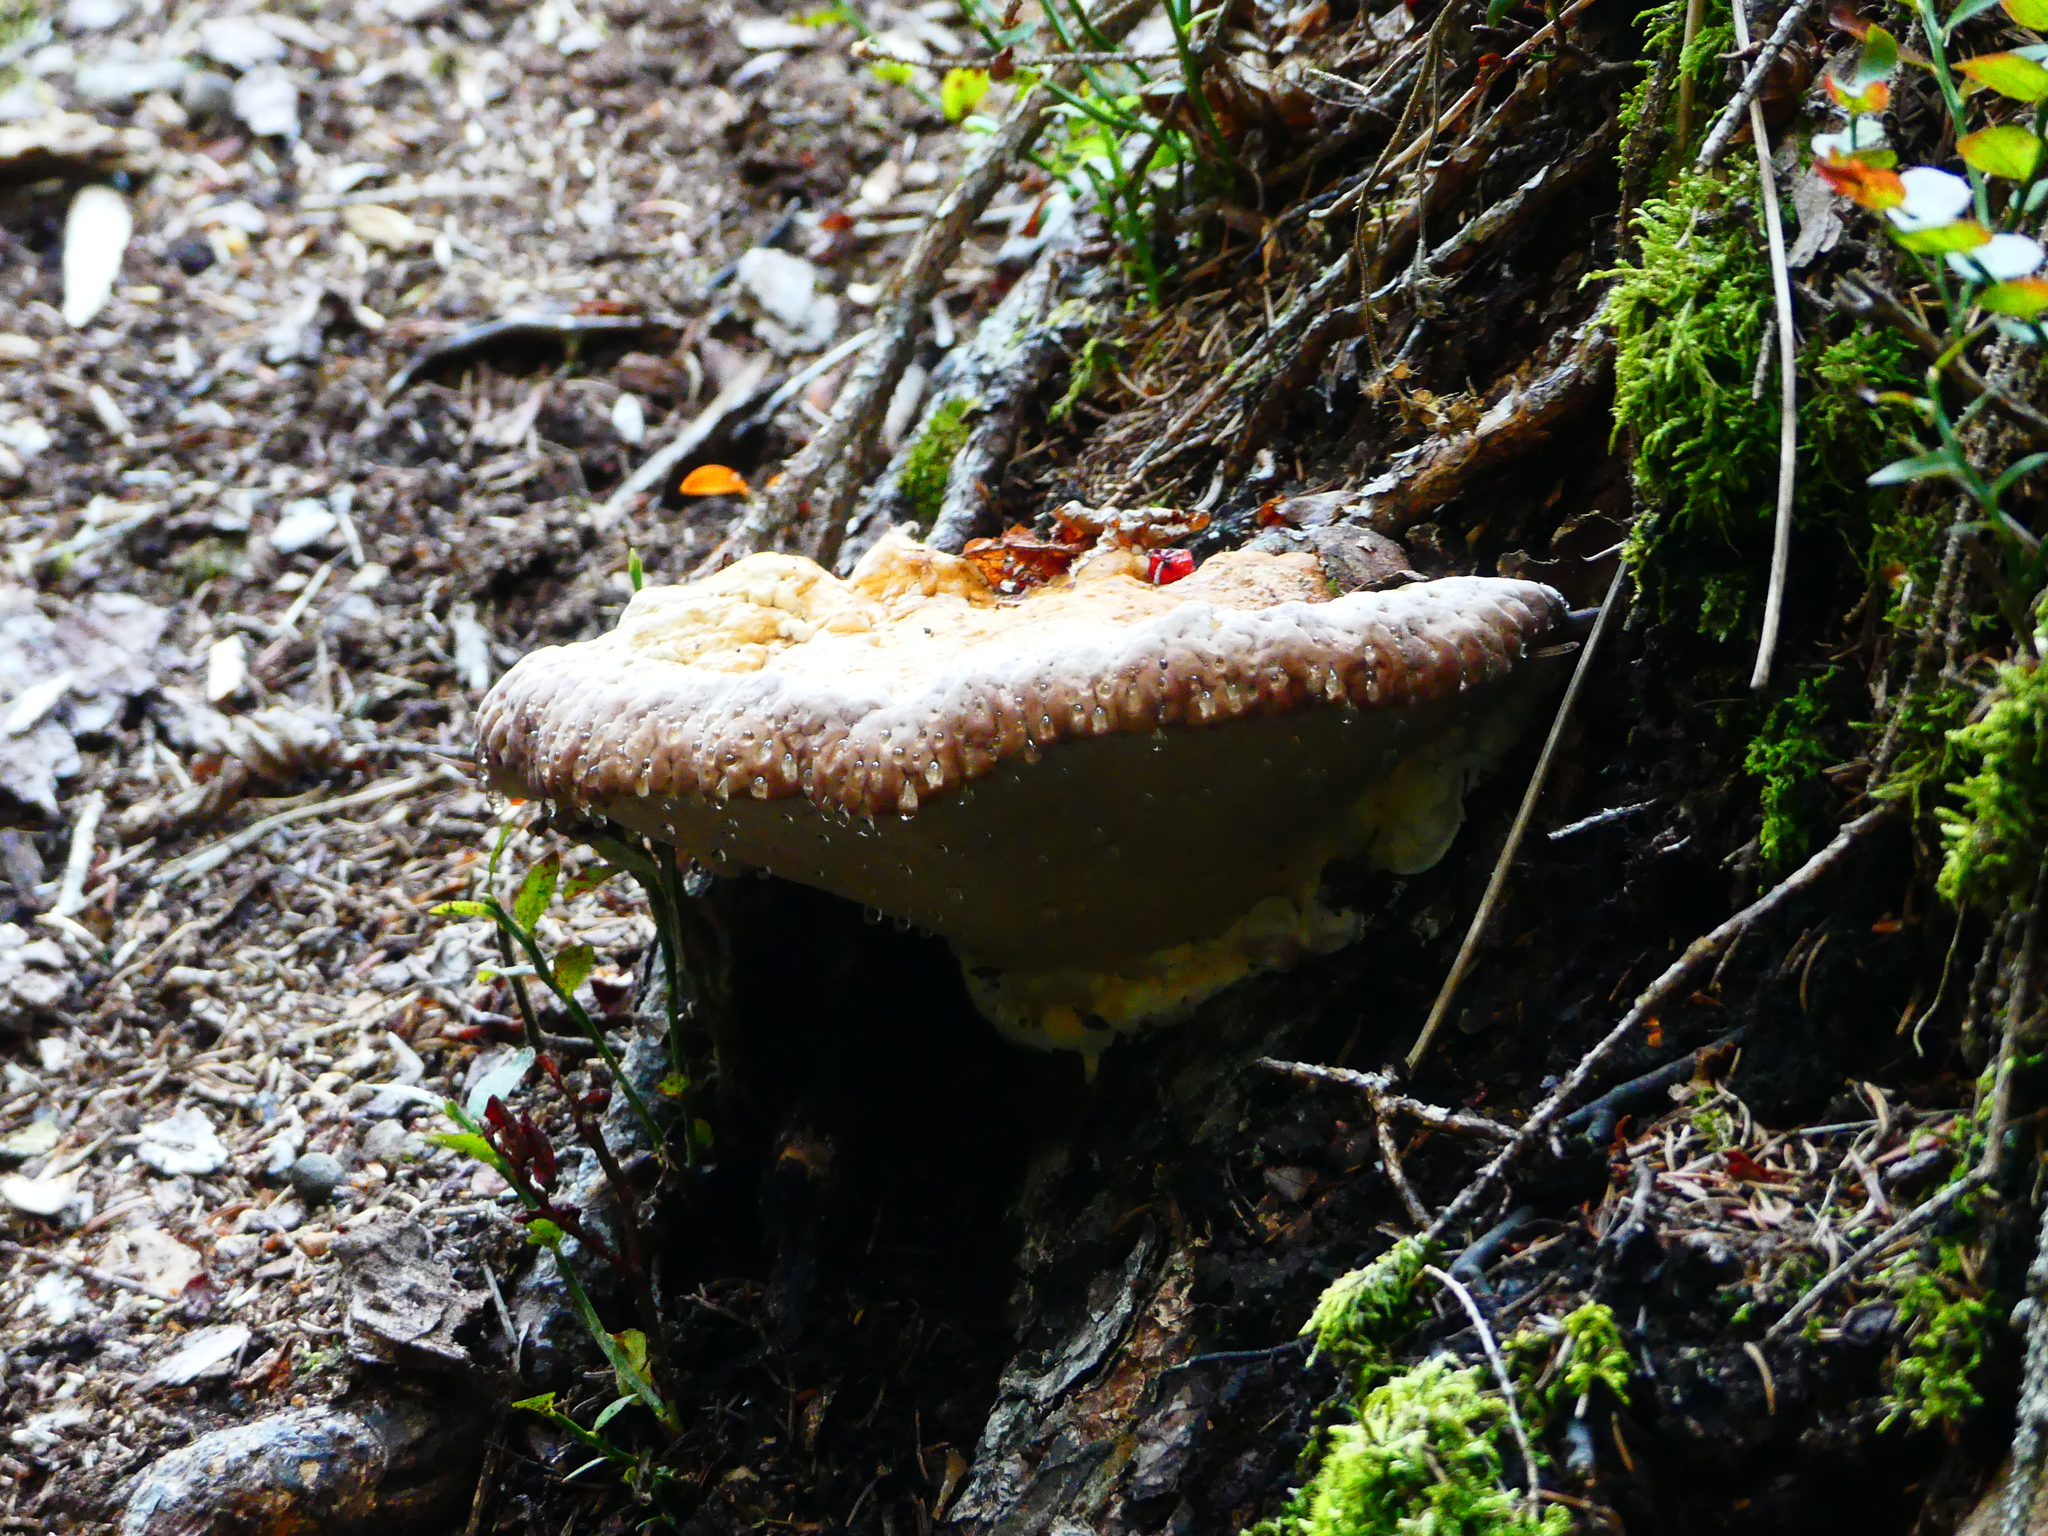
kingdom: Fungi
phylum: Basidiomycota
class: Agaricomycetes
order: Polyporales
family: Fomitopsidaceae
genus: Fomitopsis
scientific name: Fomitopsis pinicola
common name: Red-belted bracket
